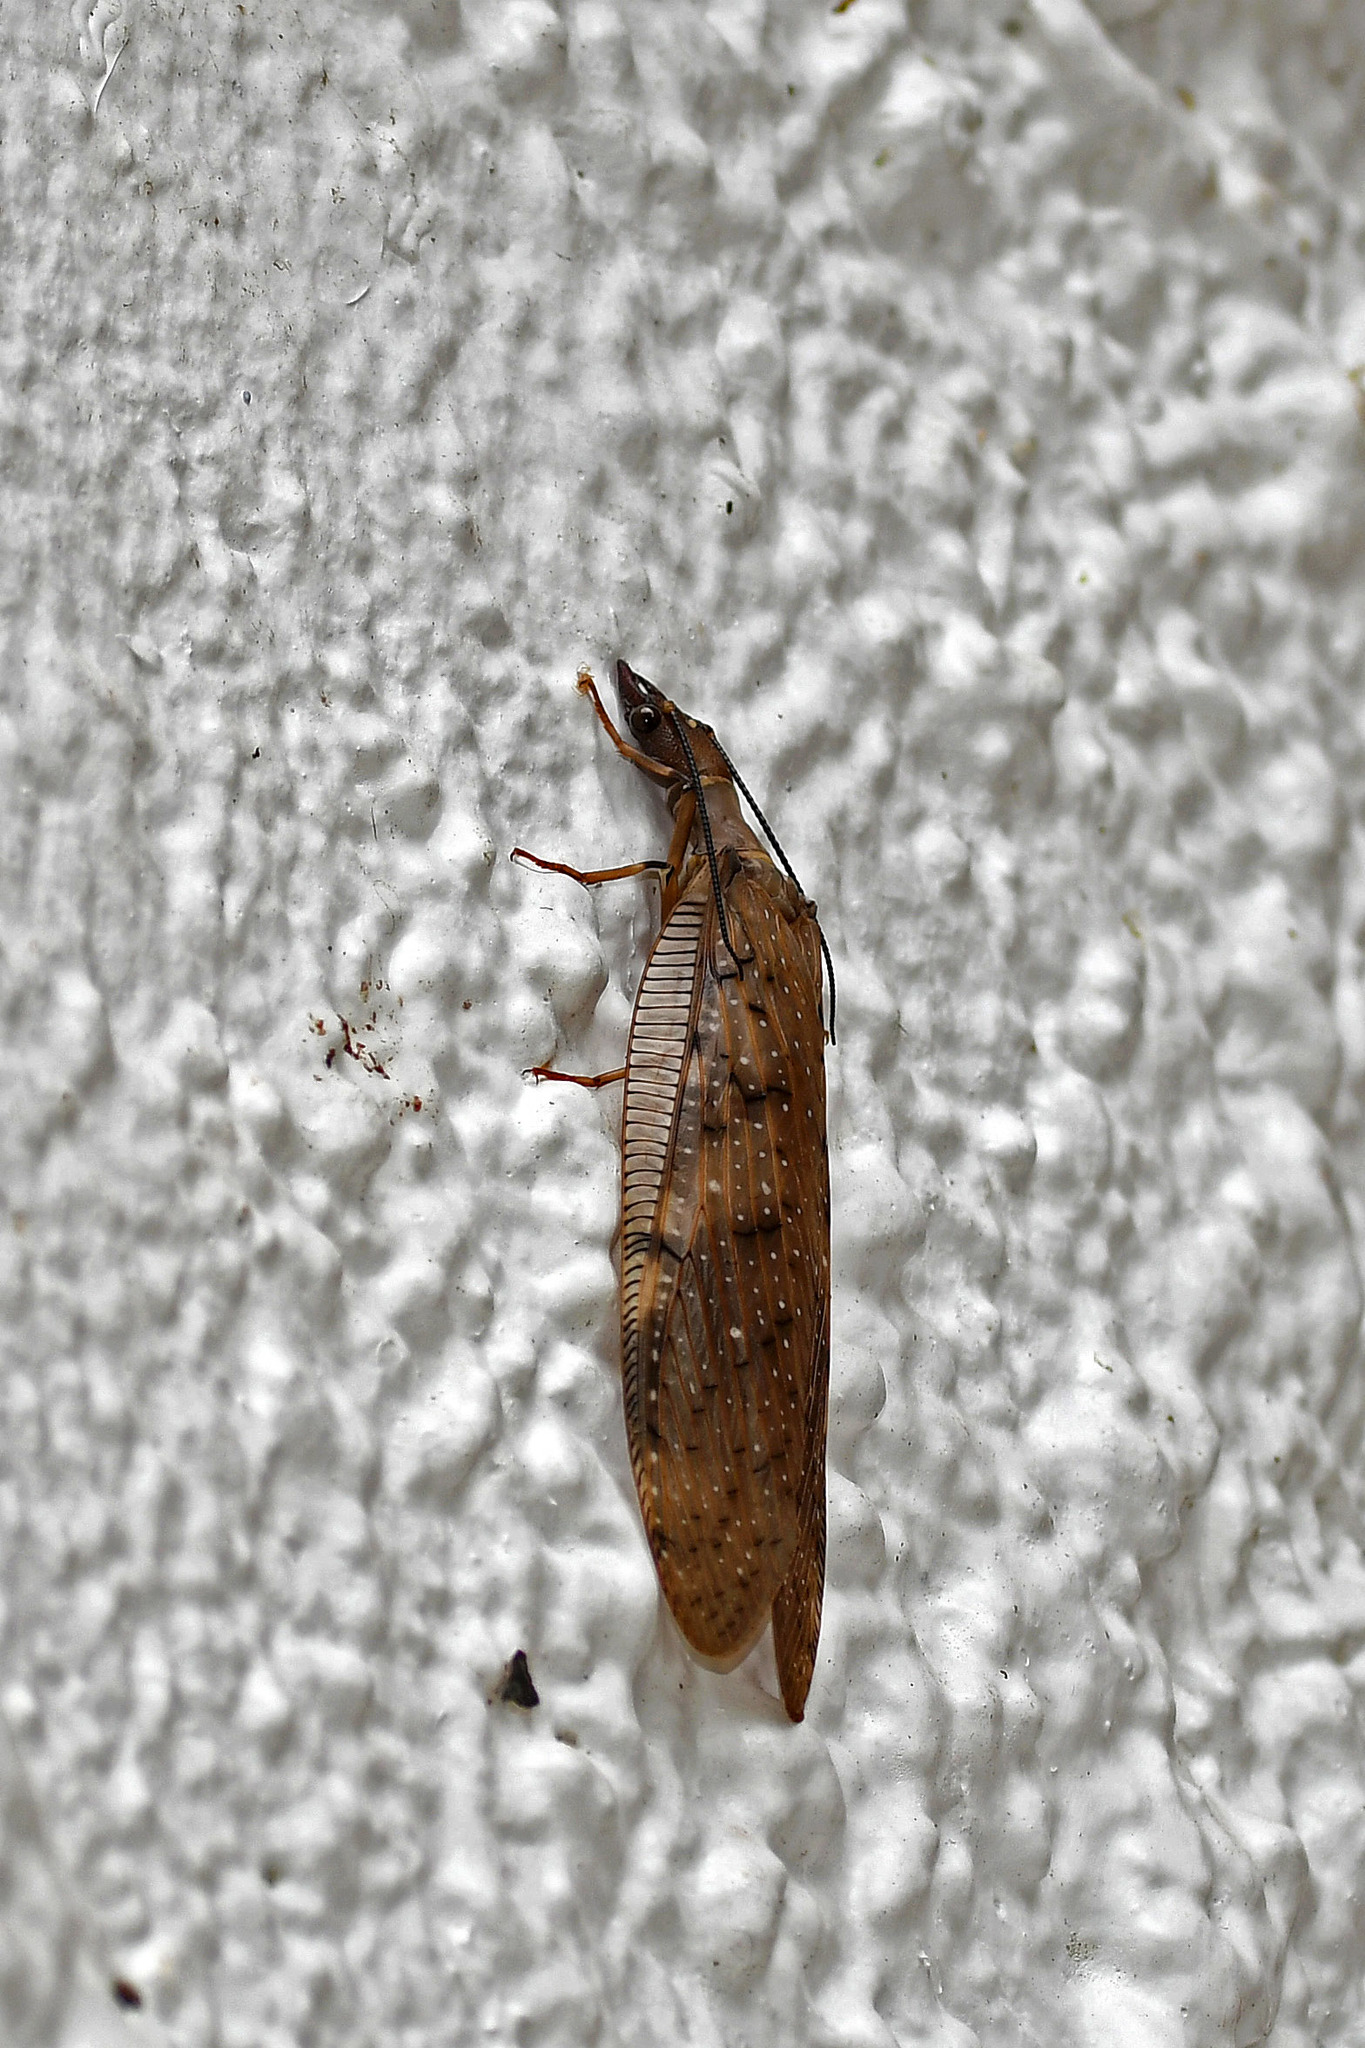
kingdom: Animalia
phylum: Arthropoda
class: Insecta
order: Megaloptera
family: Corydalidae
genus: Corydalus
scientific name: Corydalus peruvianus
